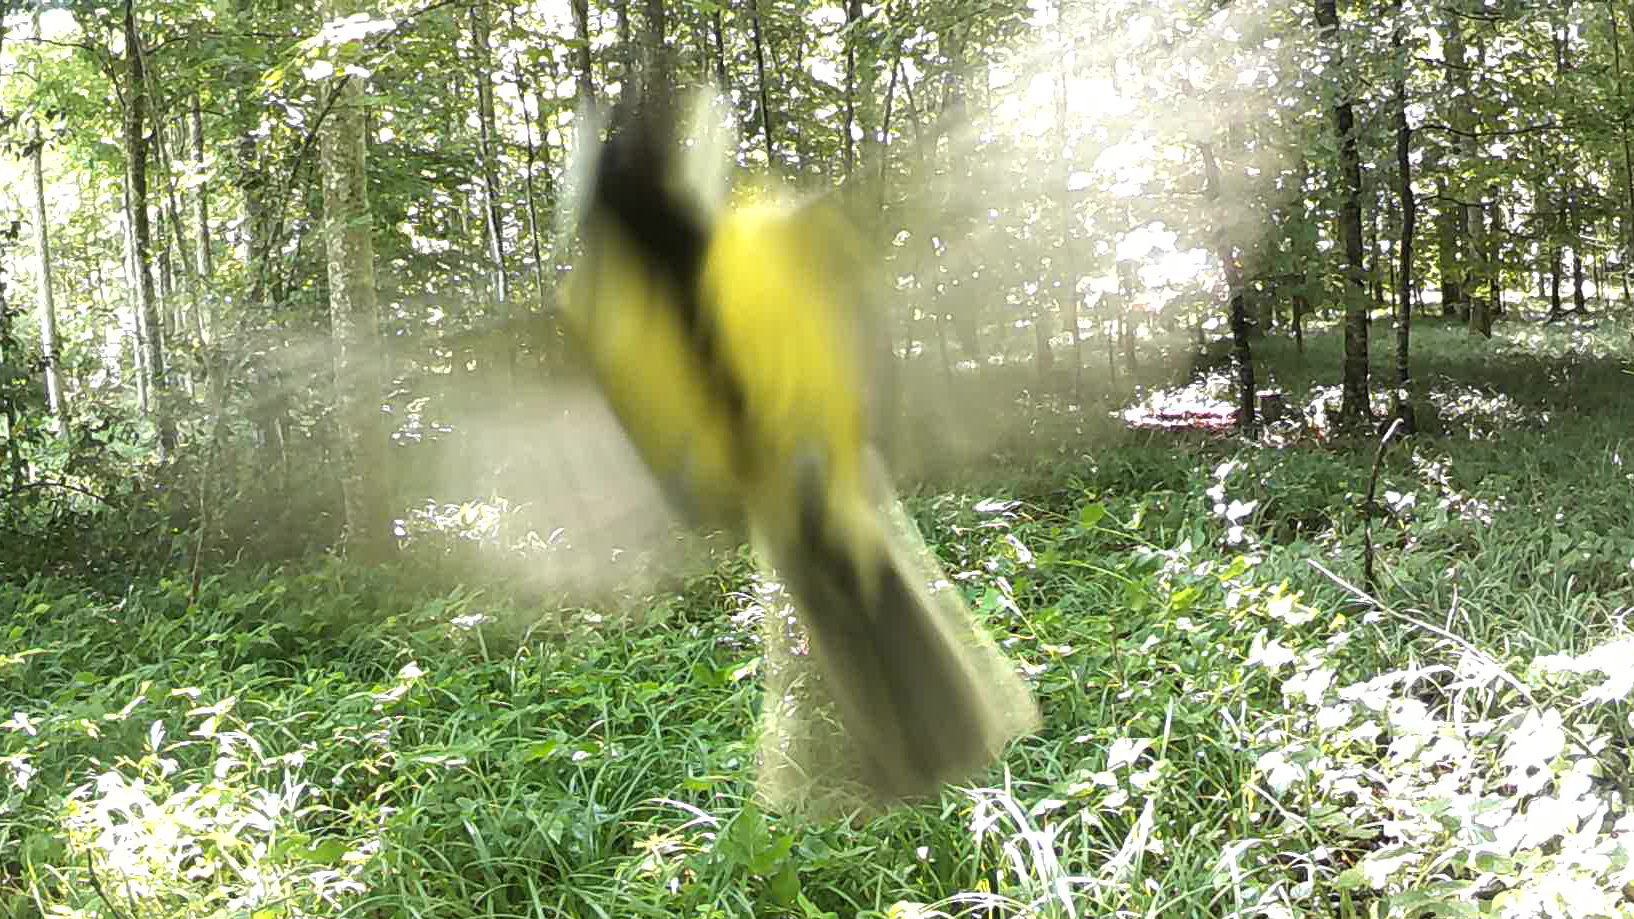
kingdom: Animalia
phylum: Chordata
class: Aves
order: Passeriformes
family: Paridae
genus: Parus
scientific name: Parus major
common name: Great tit
